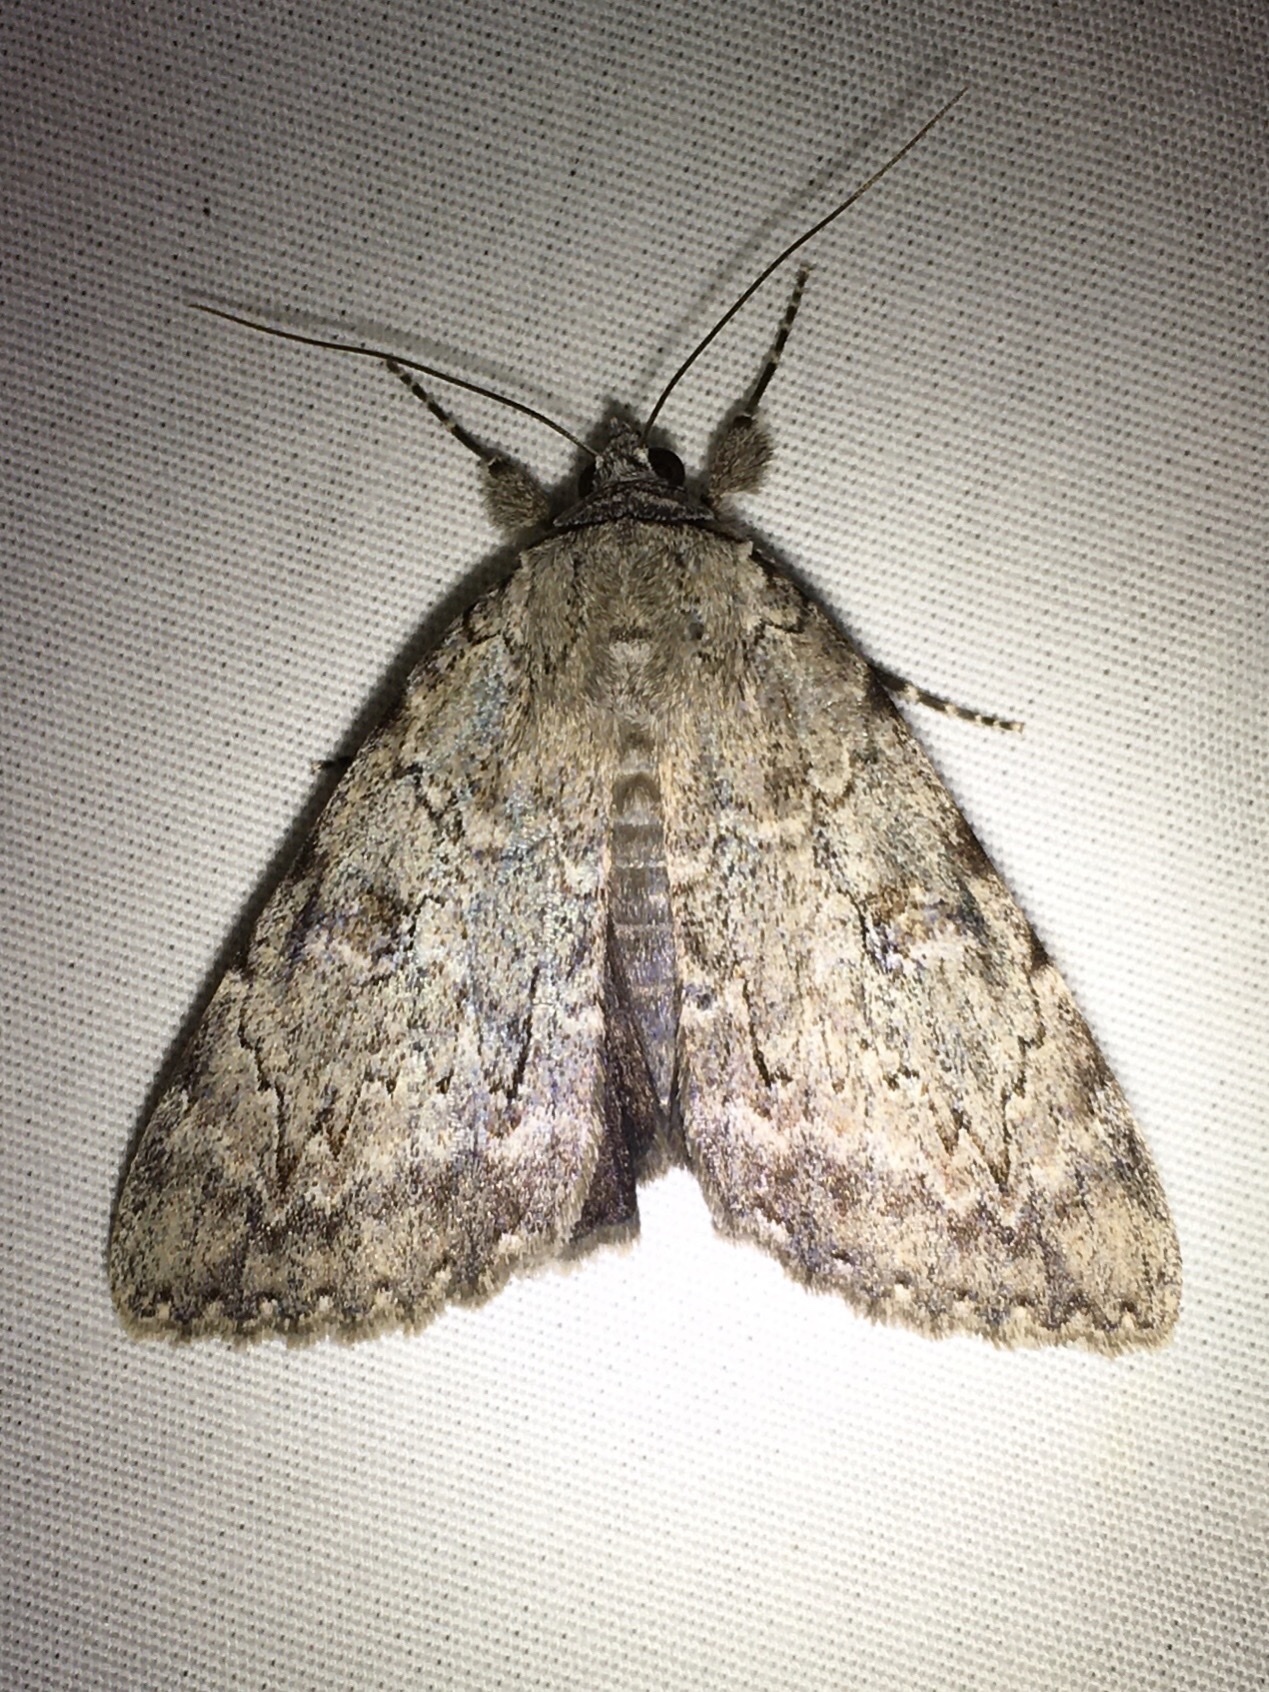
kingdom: Animalia
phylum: Arthropoda
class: Insecta
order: Lepidoptera
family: Erebidae
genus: Catocala
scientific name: Catocala judith
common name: Judith's underwing
